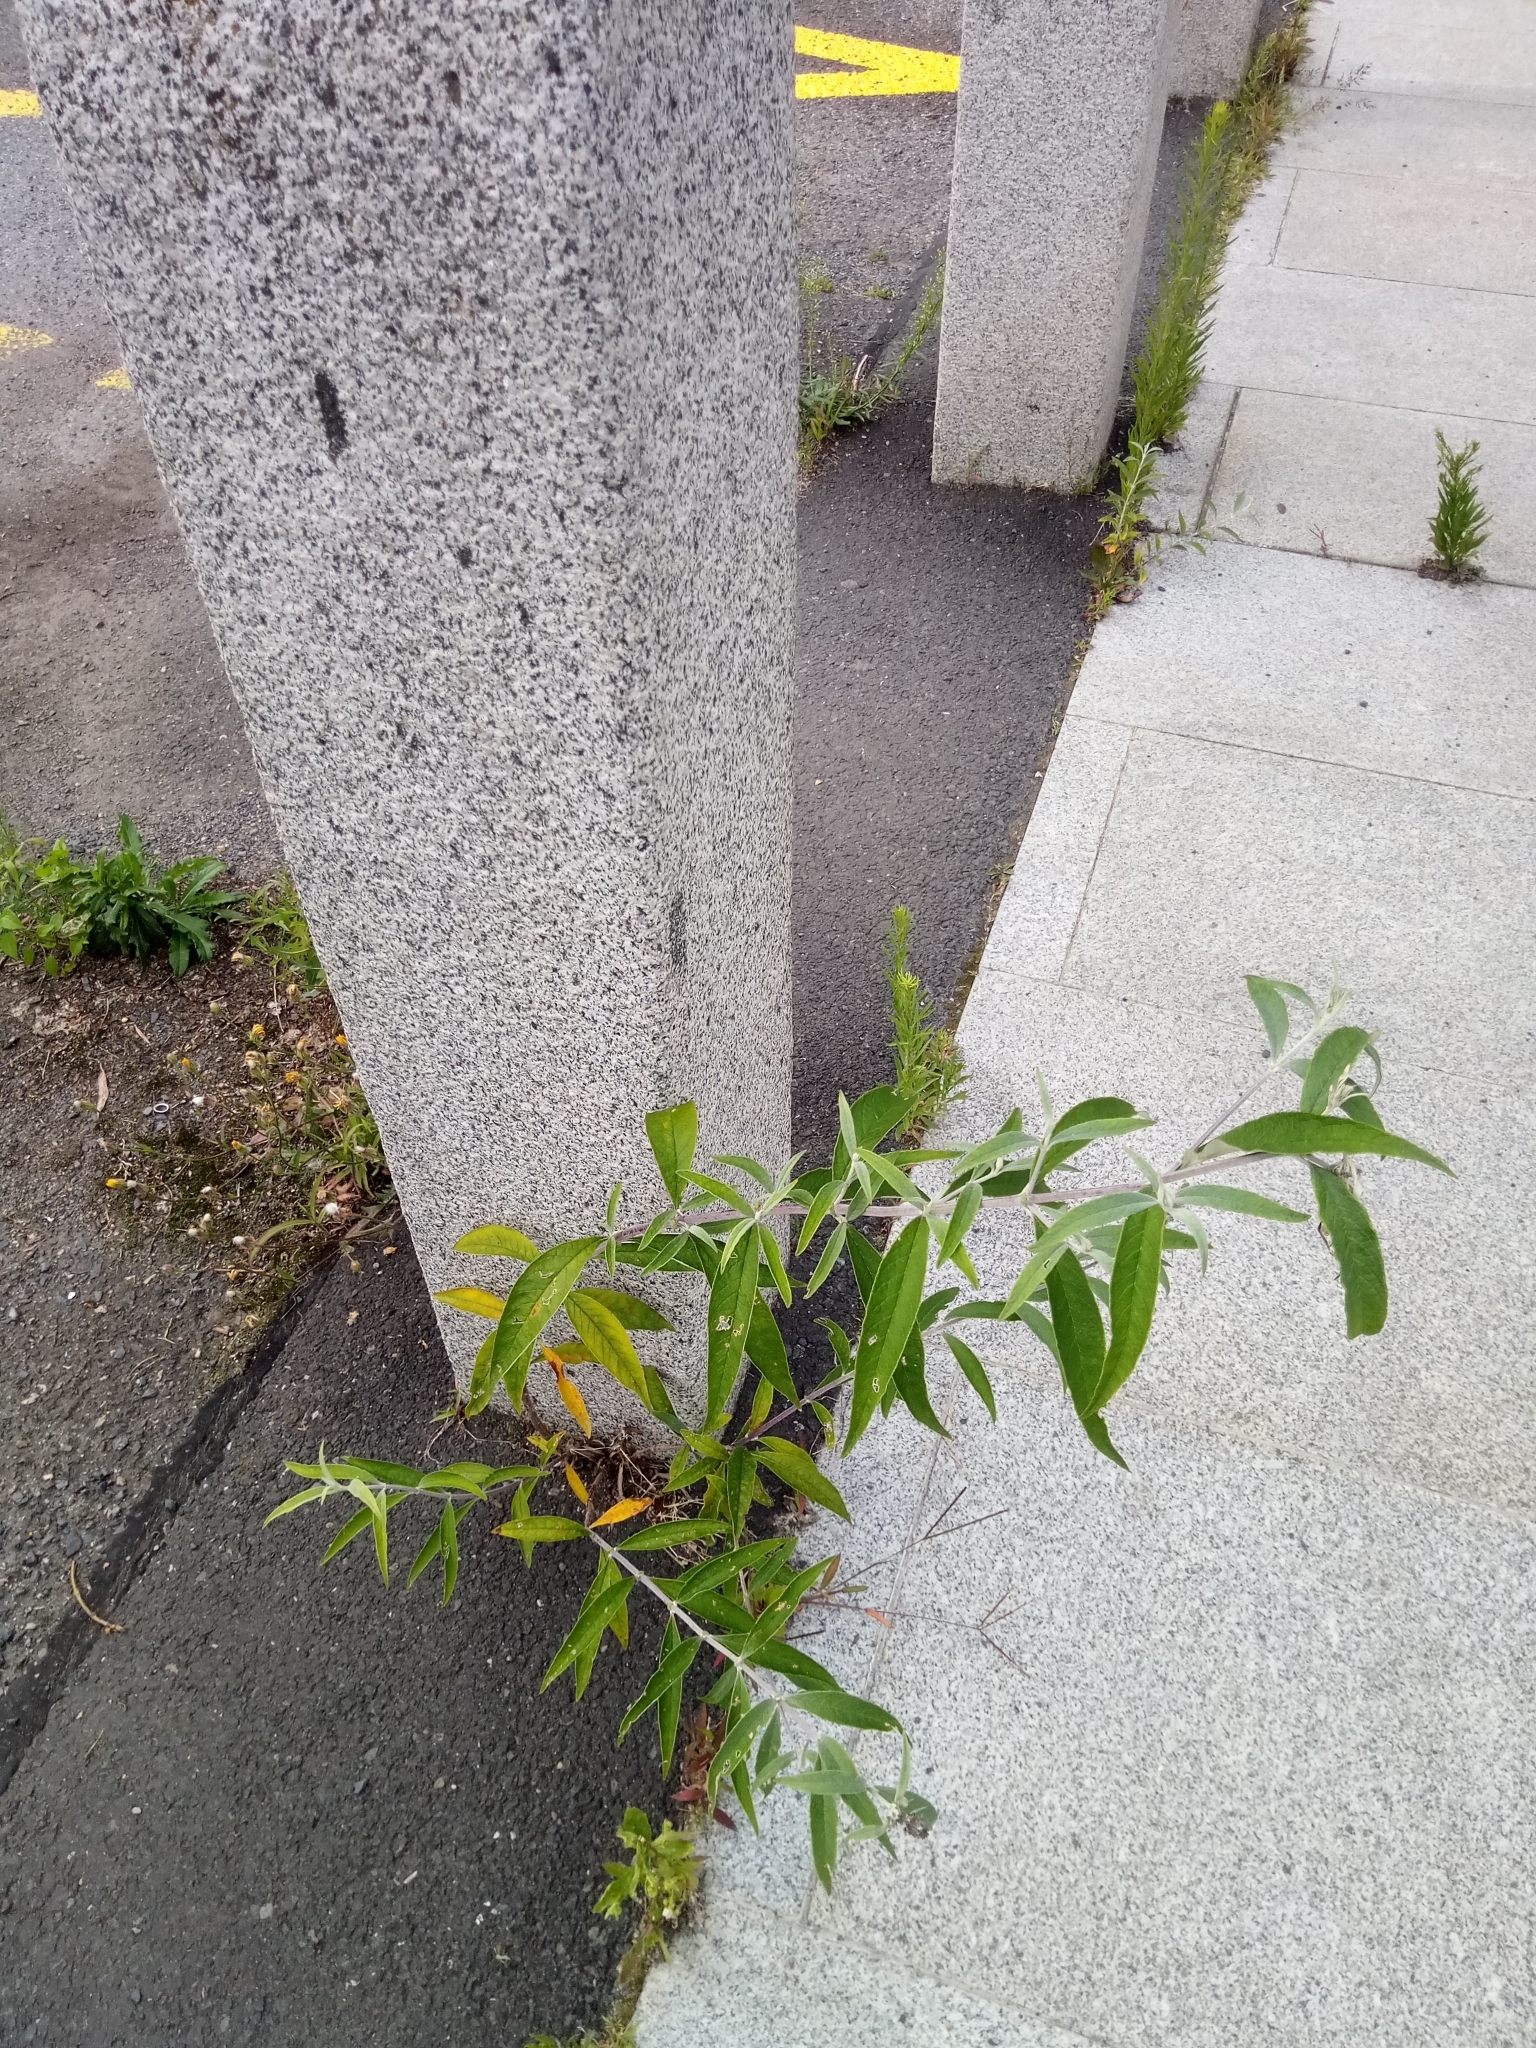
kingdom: Plantae
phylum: Tracheophyta
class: Magnoliopsida
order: Lamiales
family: Scrophulariaceae
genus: Buddleja
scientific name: Buddleja davidii
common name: Butterfly-bush
